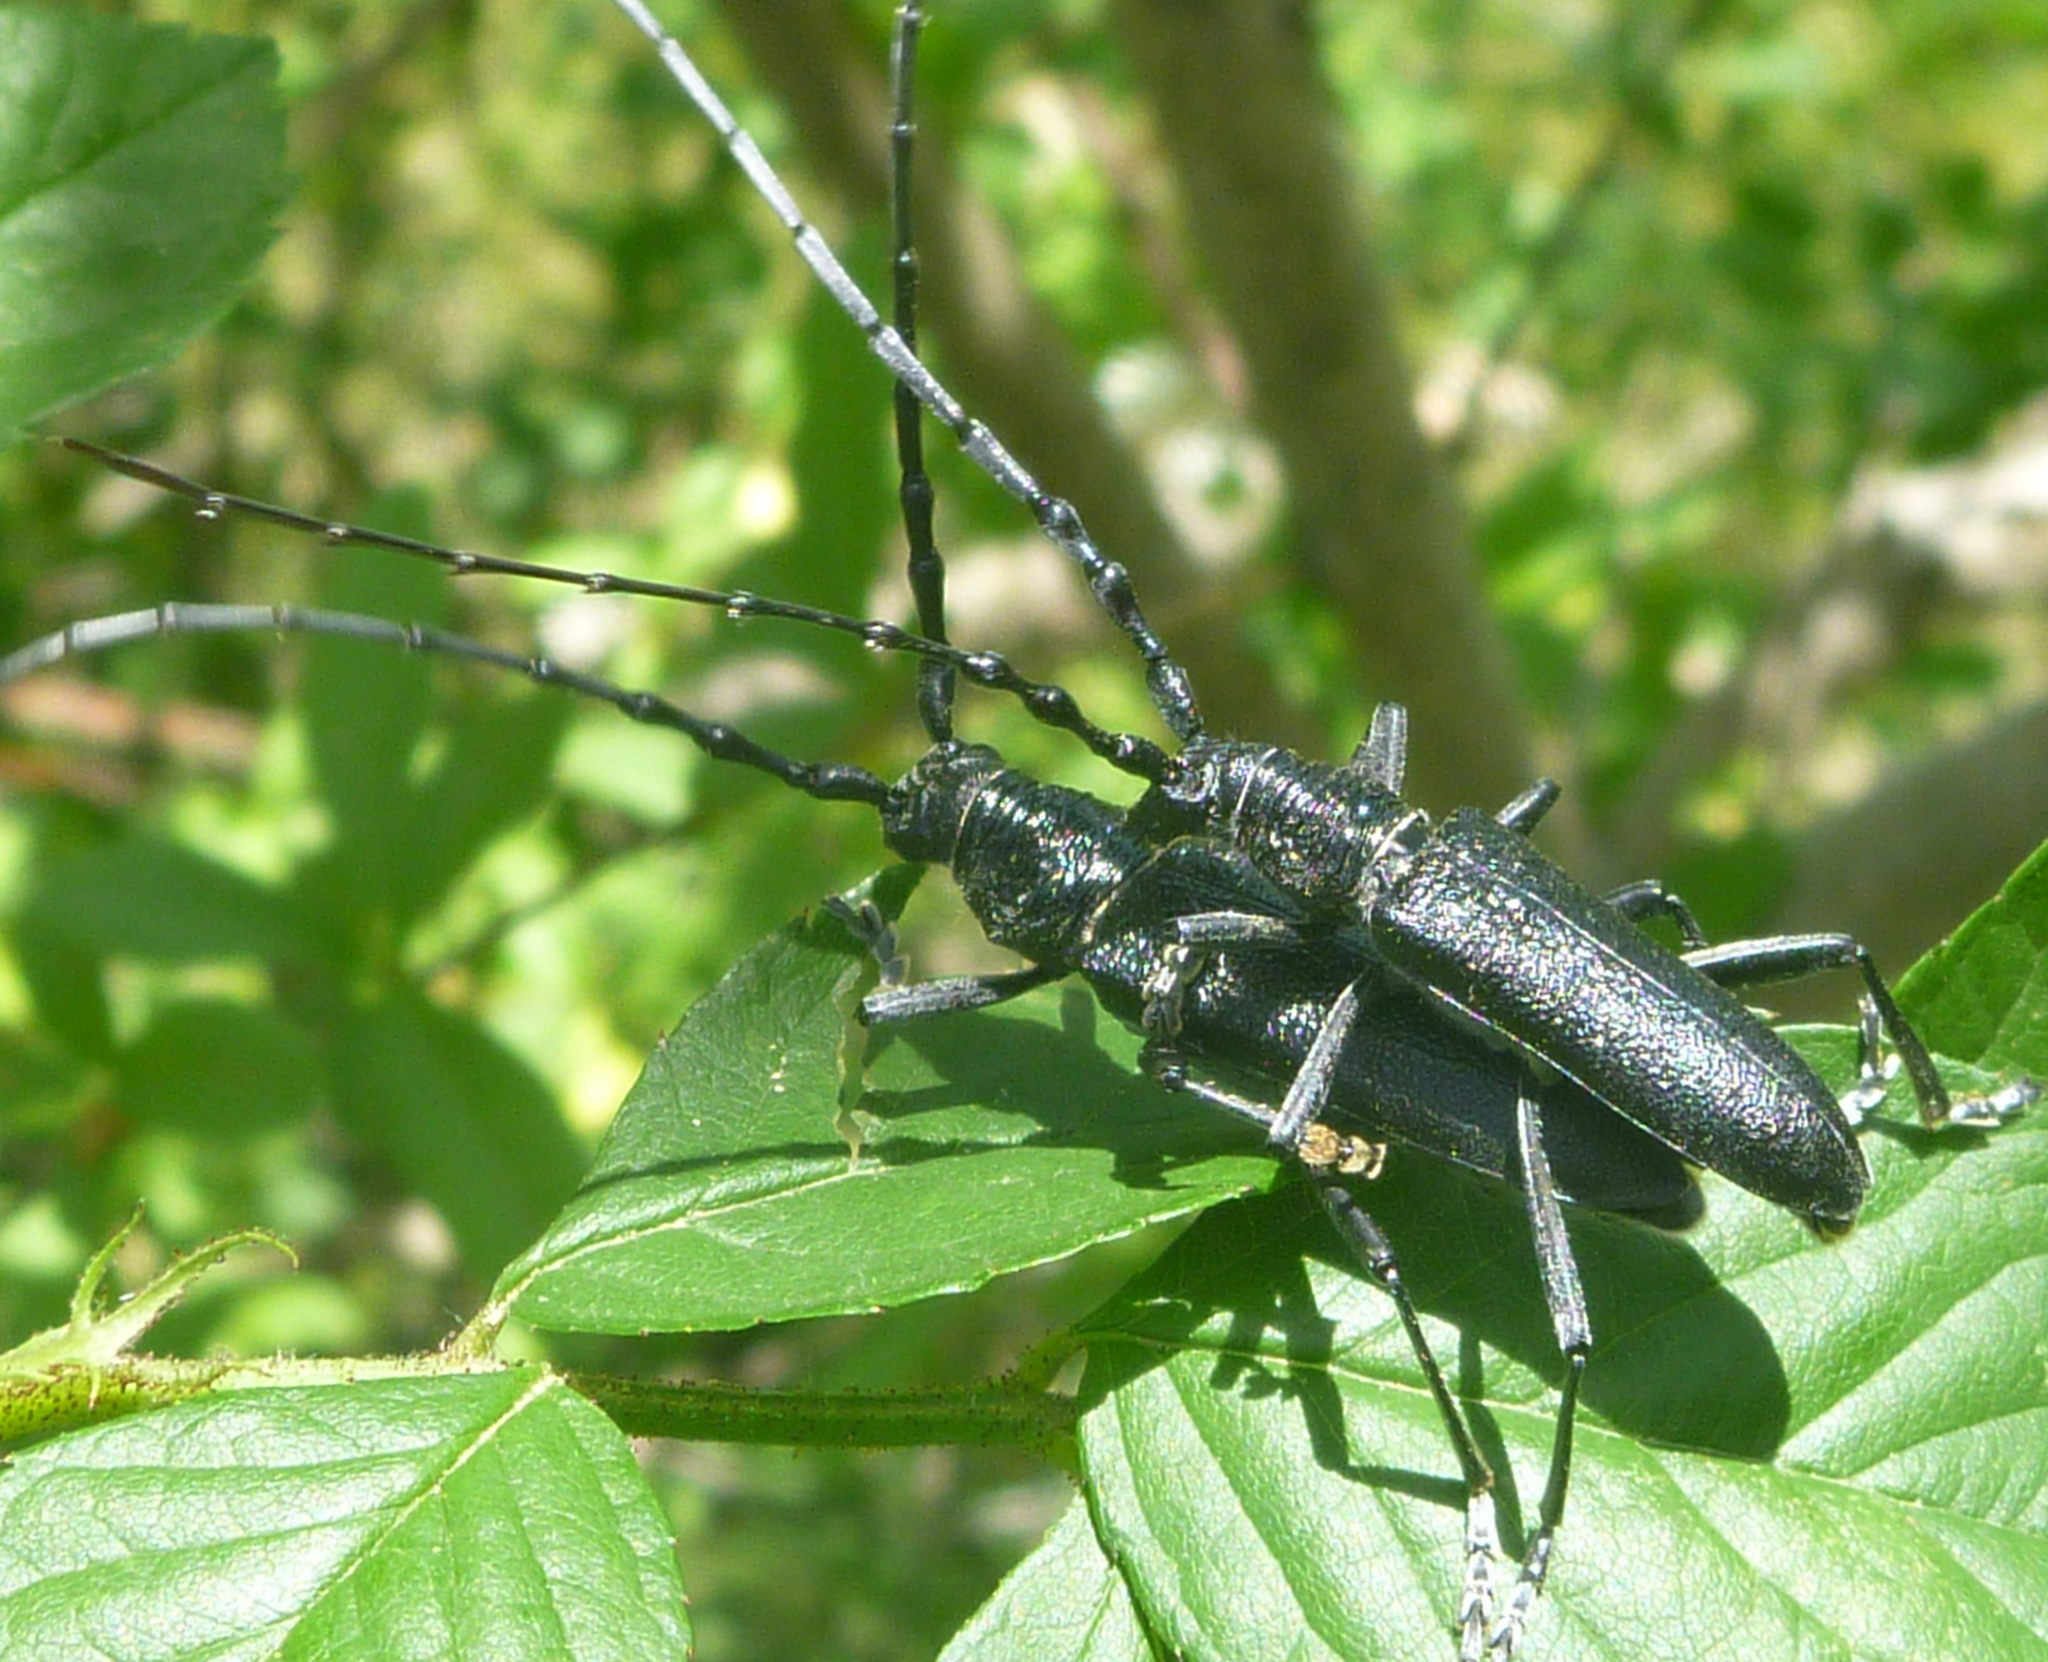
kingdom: Animalia
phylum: Arthropoda
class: Insecta
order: Coleoptera
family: Cerambycidae
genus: Cerambyx
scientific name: Cerambyx scopolii
